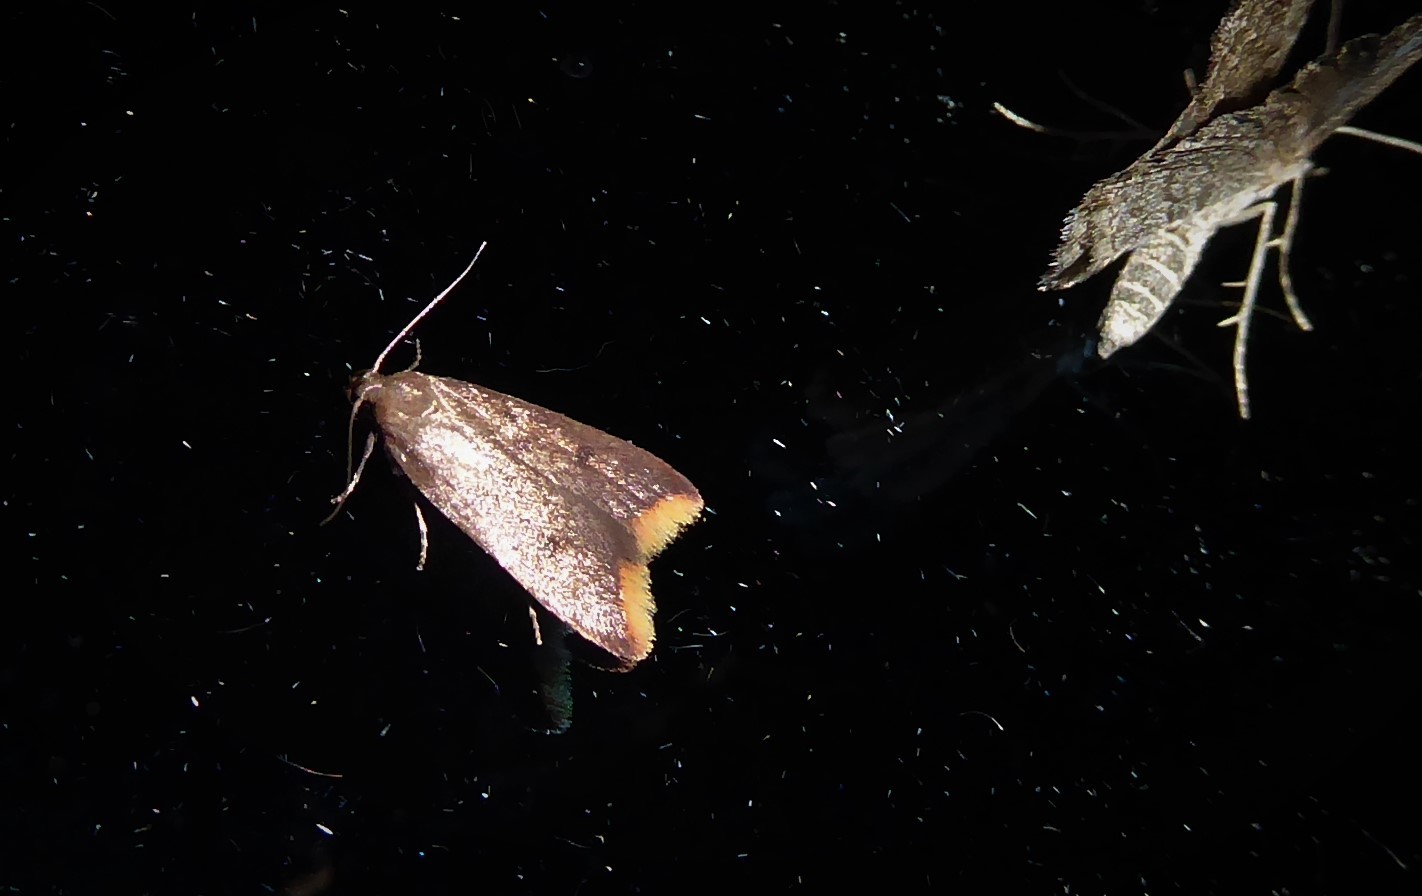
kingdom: Animalia
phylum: Arthropoda
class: Insecta
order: Lepidoptera
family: Oecophoridae
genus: Tachystola
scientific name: Tachystola acroxantha
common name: Ruddy streak
